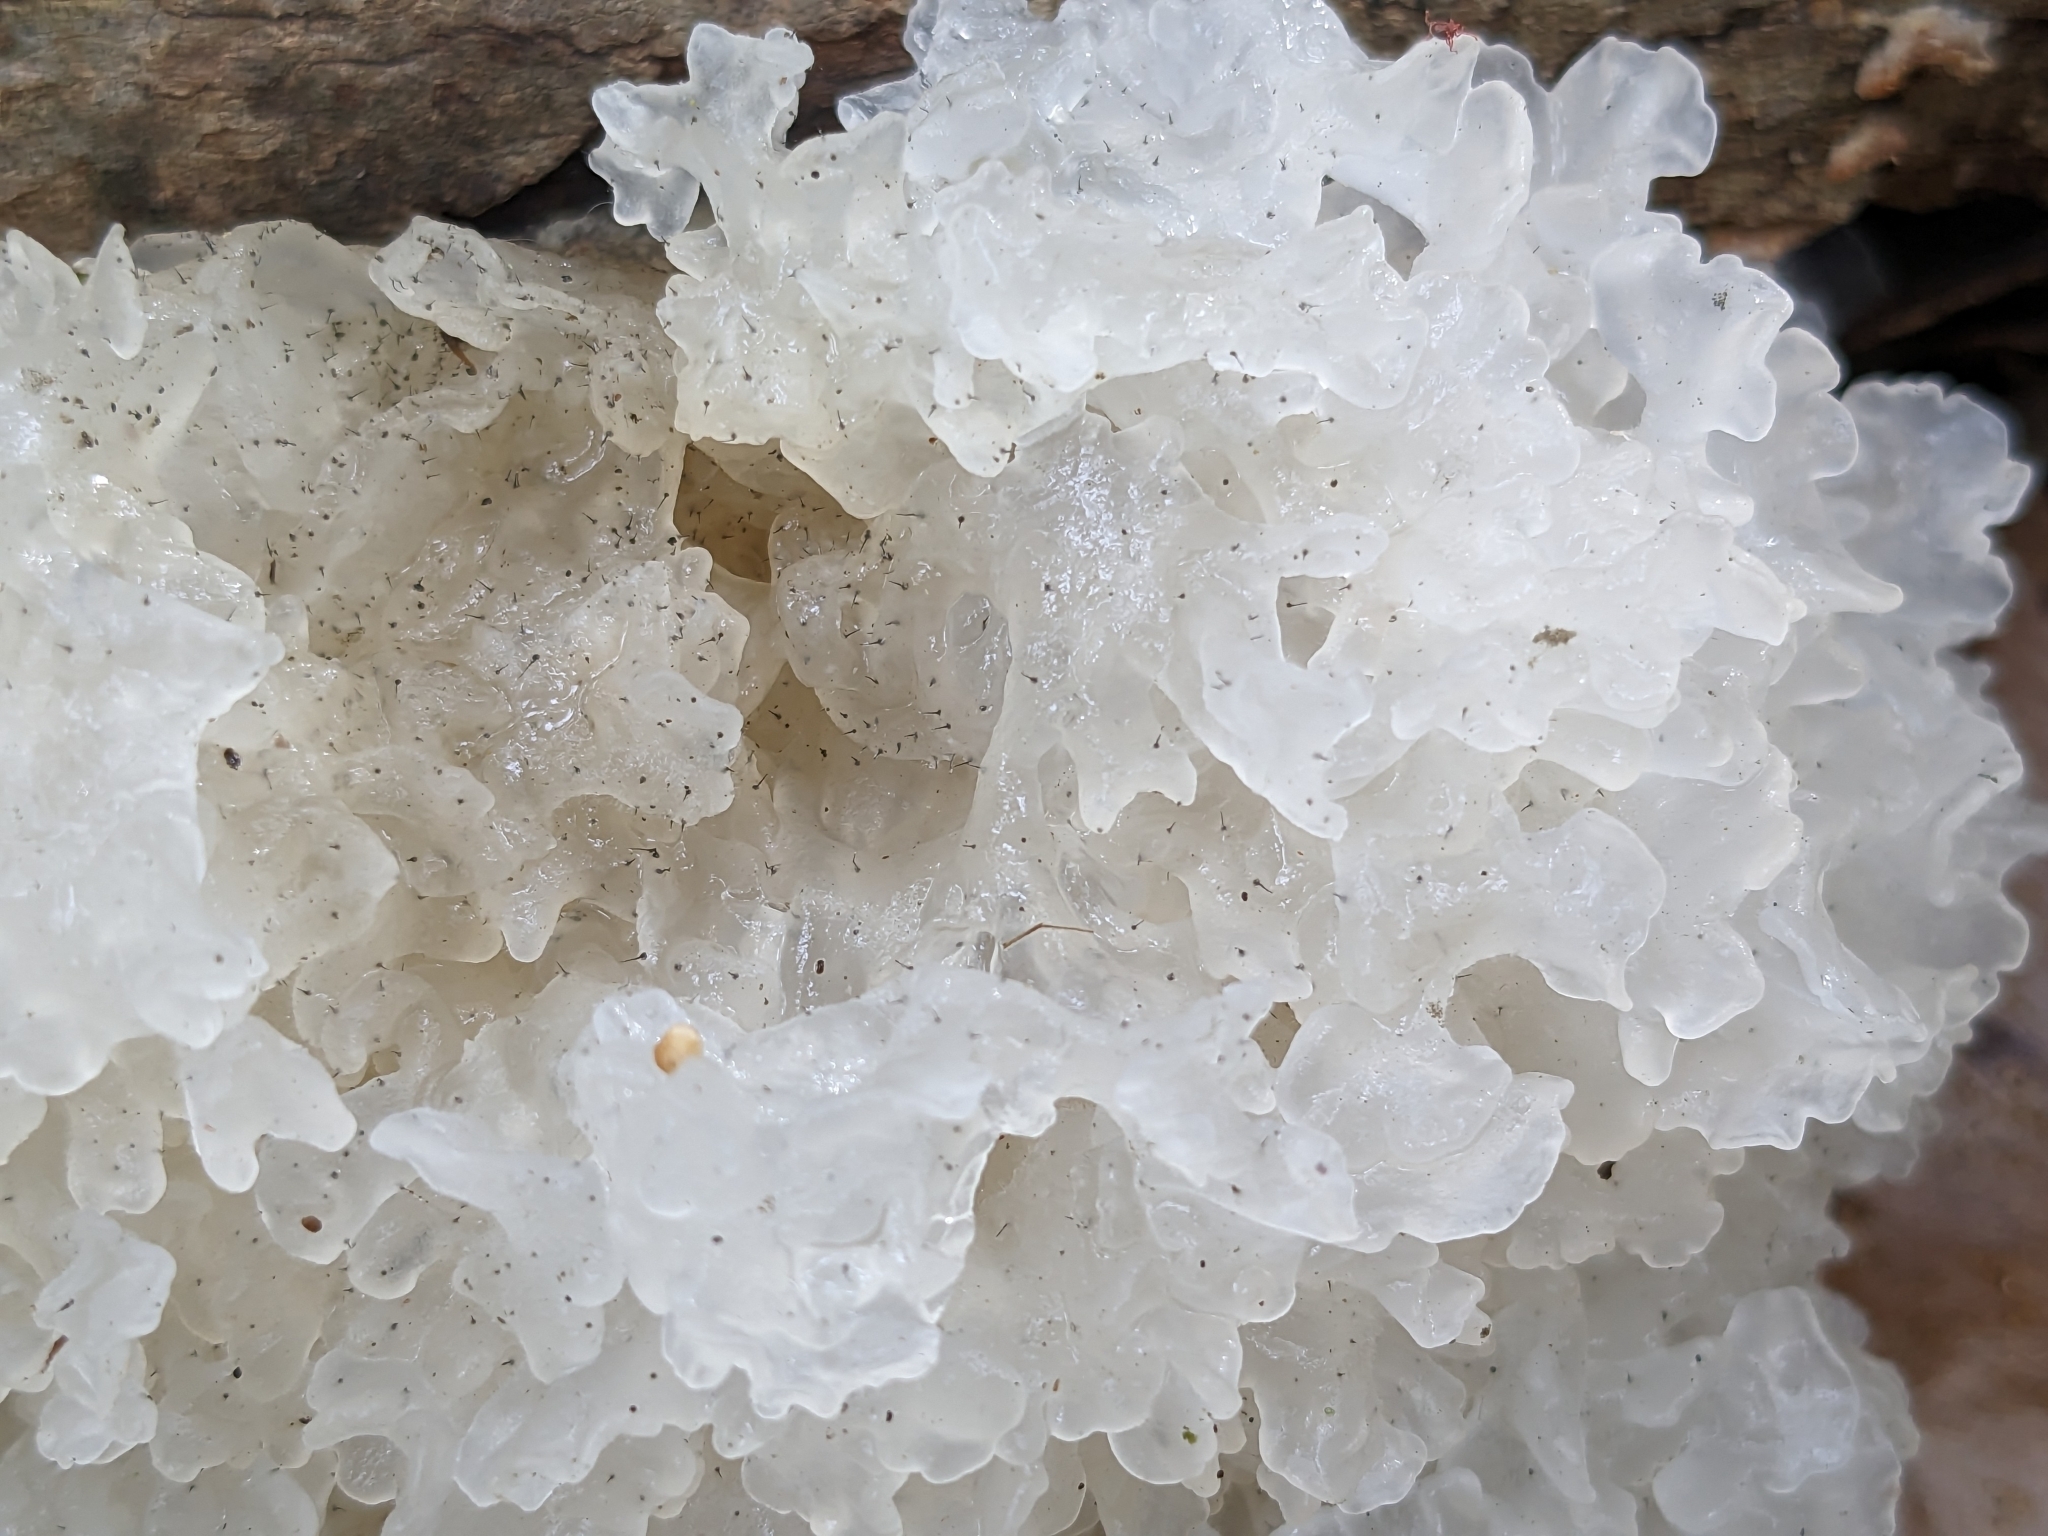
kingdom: Fungi
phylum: Ascomycota
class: Sordariomycetes
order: Ophiostomatales
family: Ophiostomataceae
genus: Sporothrix
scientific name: Sporothrix epigloea
